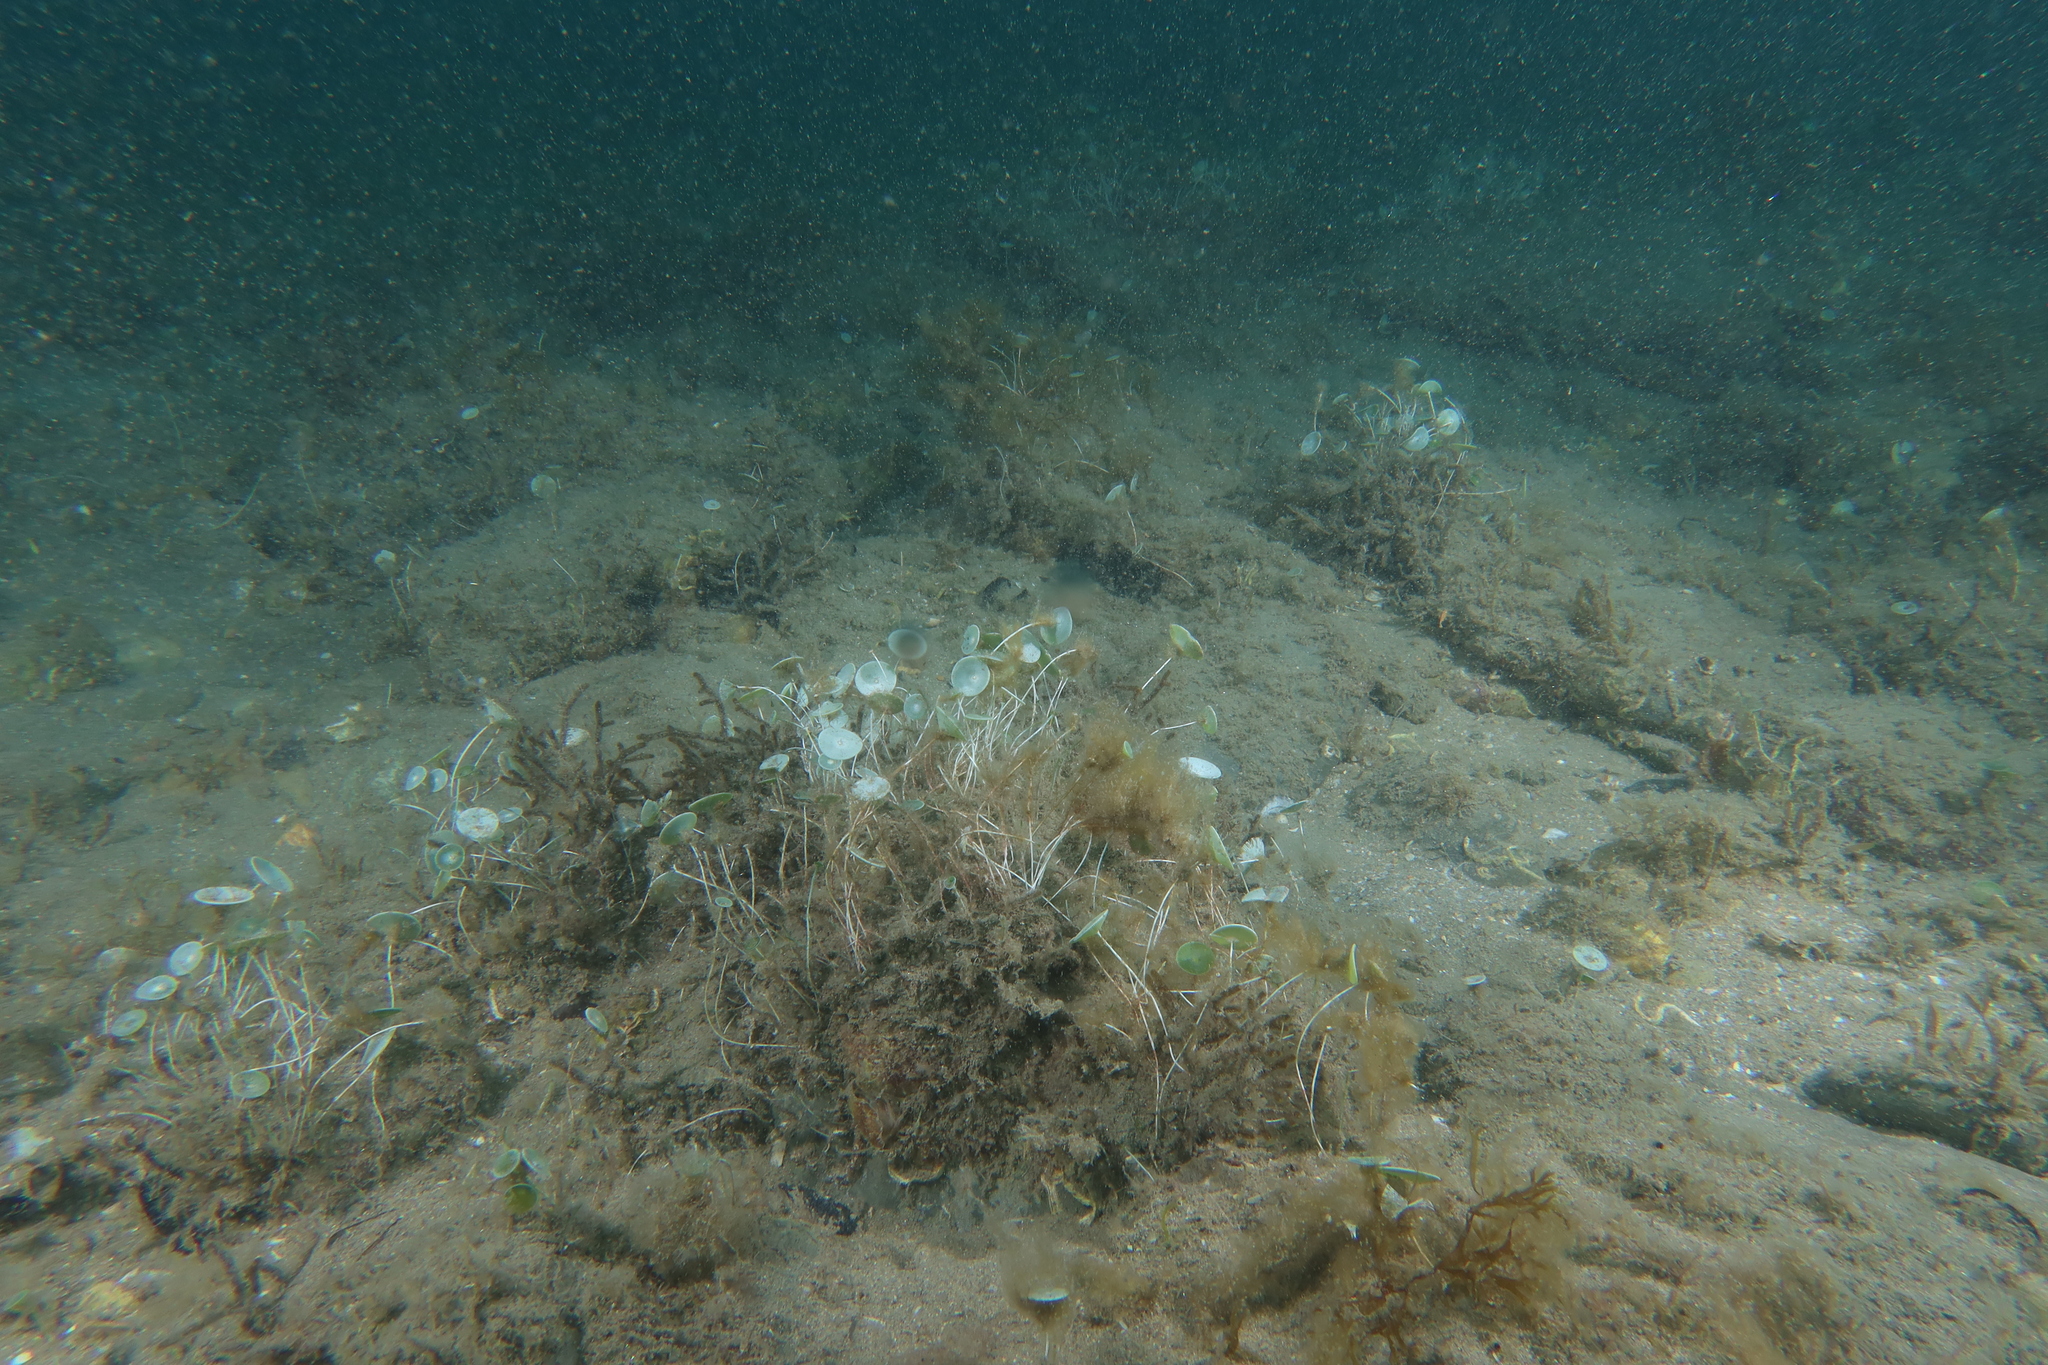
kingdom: Plantae
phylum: Chlorophyta
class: Ulvophyceae
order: Dasycladales
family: Polyphysaceae
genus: Acetabularia
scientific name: Acetabularia acetabulum
